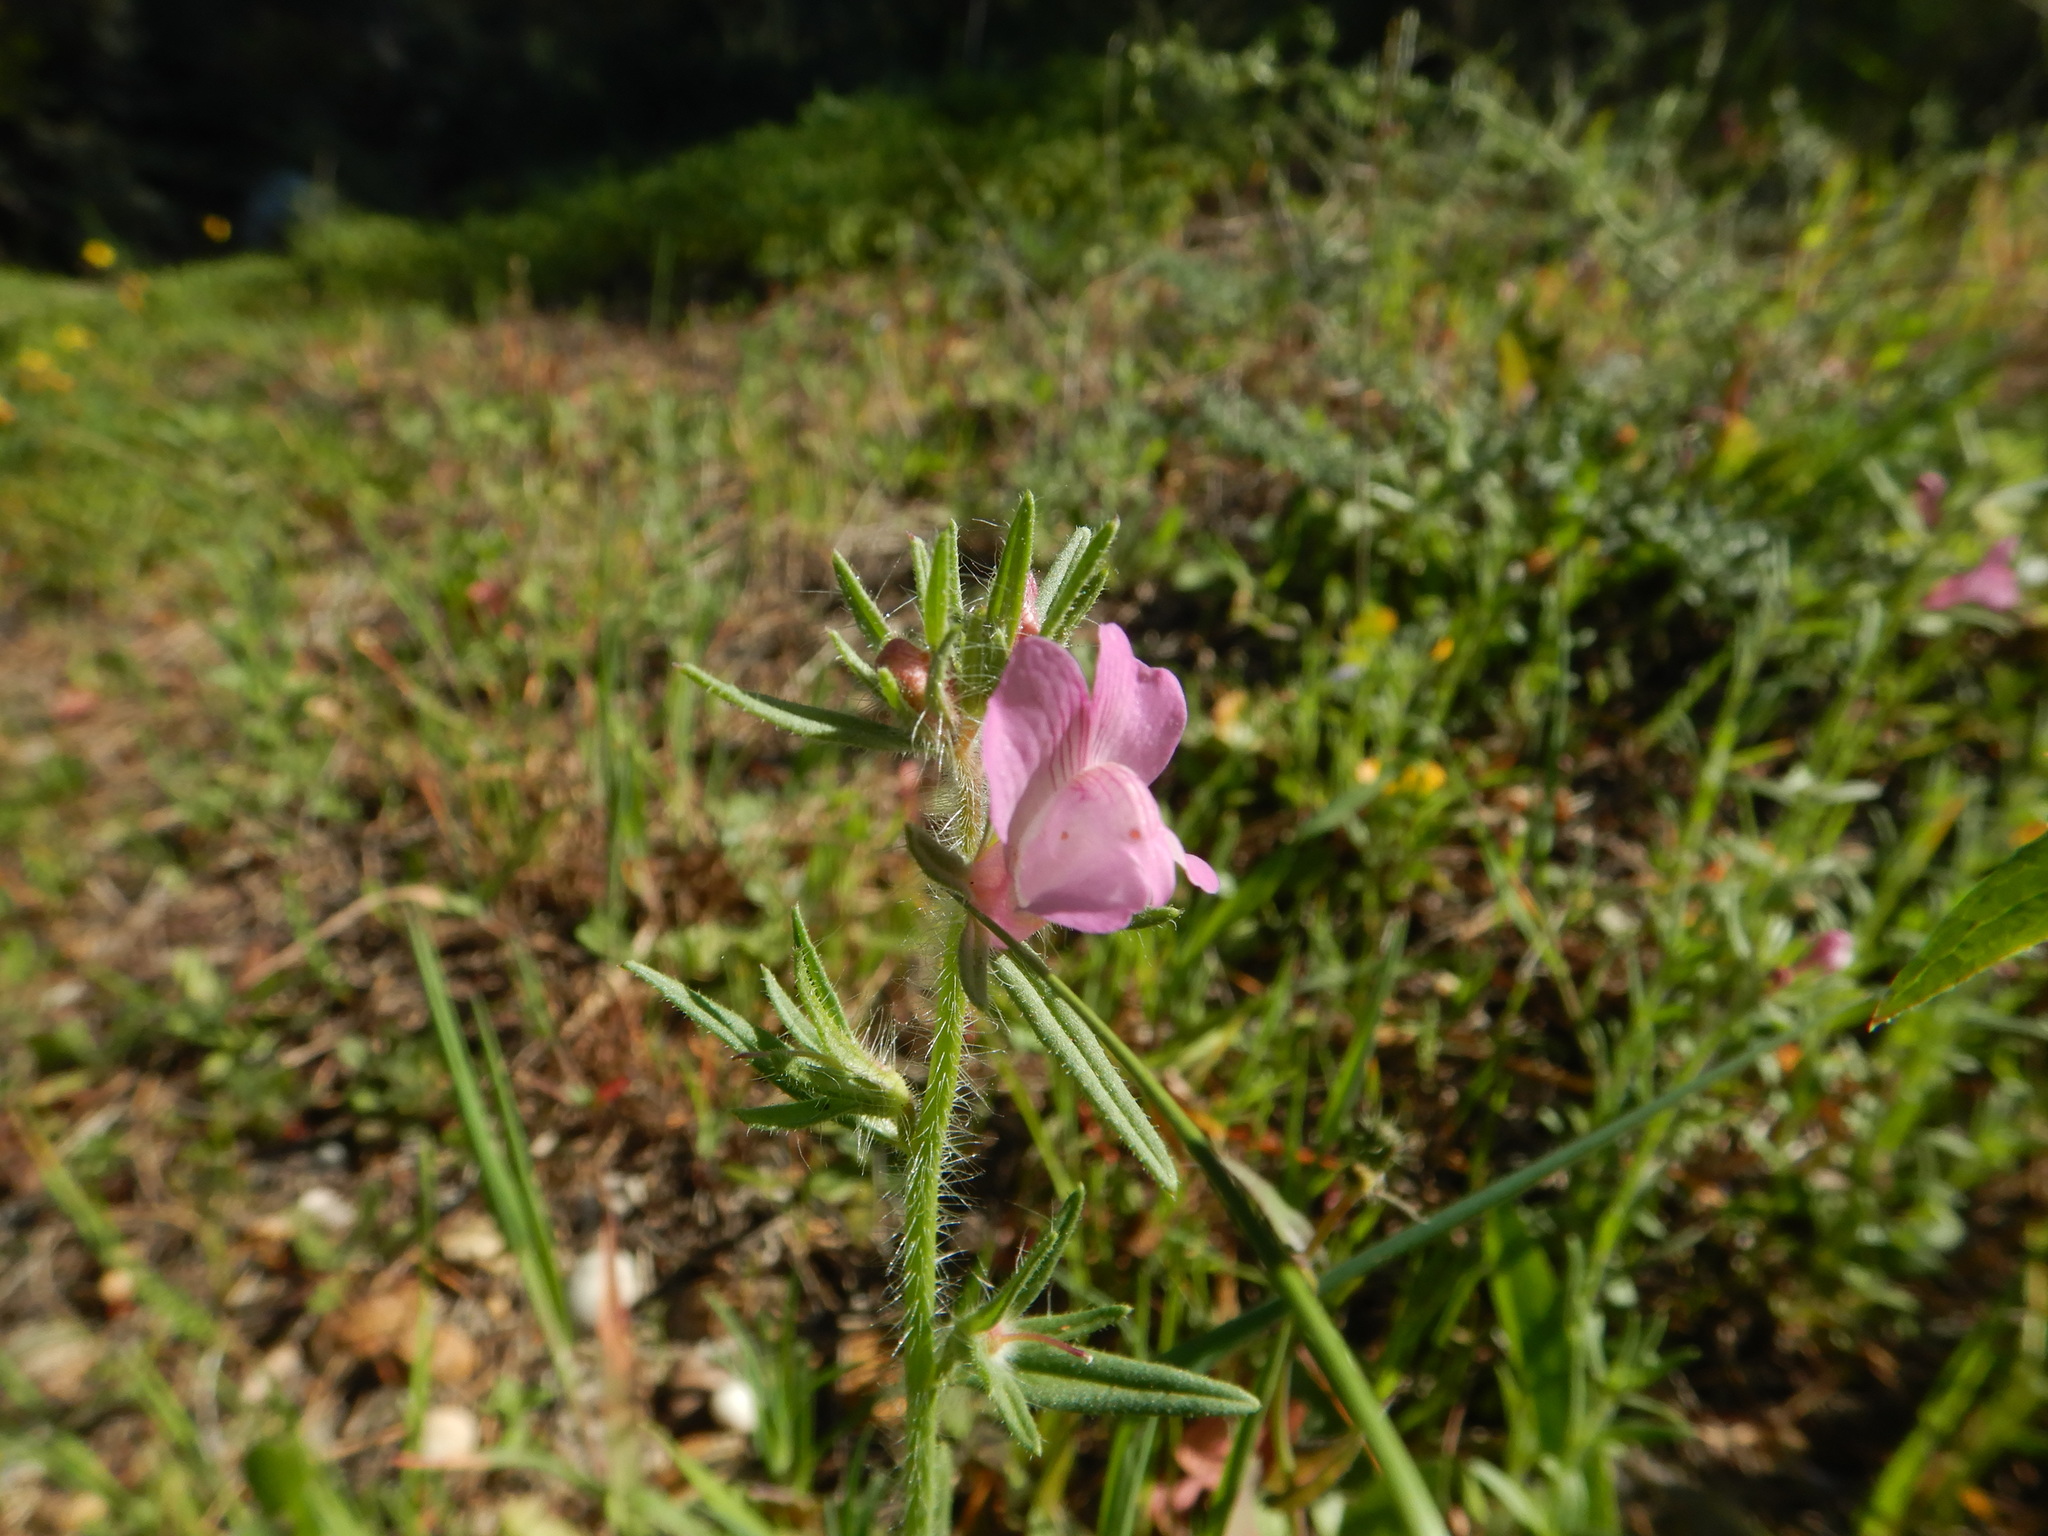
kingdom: Plantae
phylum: Tracheophyta
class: Magnoliopsida
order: Lamiales
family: Plantaginaceae
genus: Misopates
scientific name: Misopates orontium
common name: Weasel's-snout
